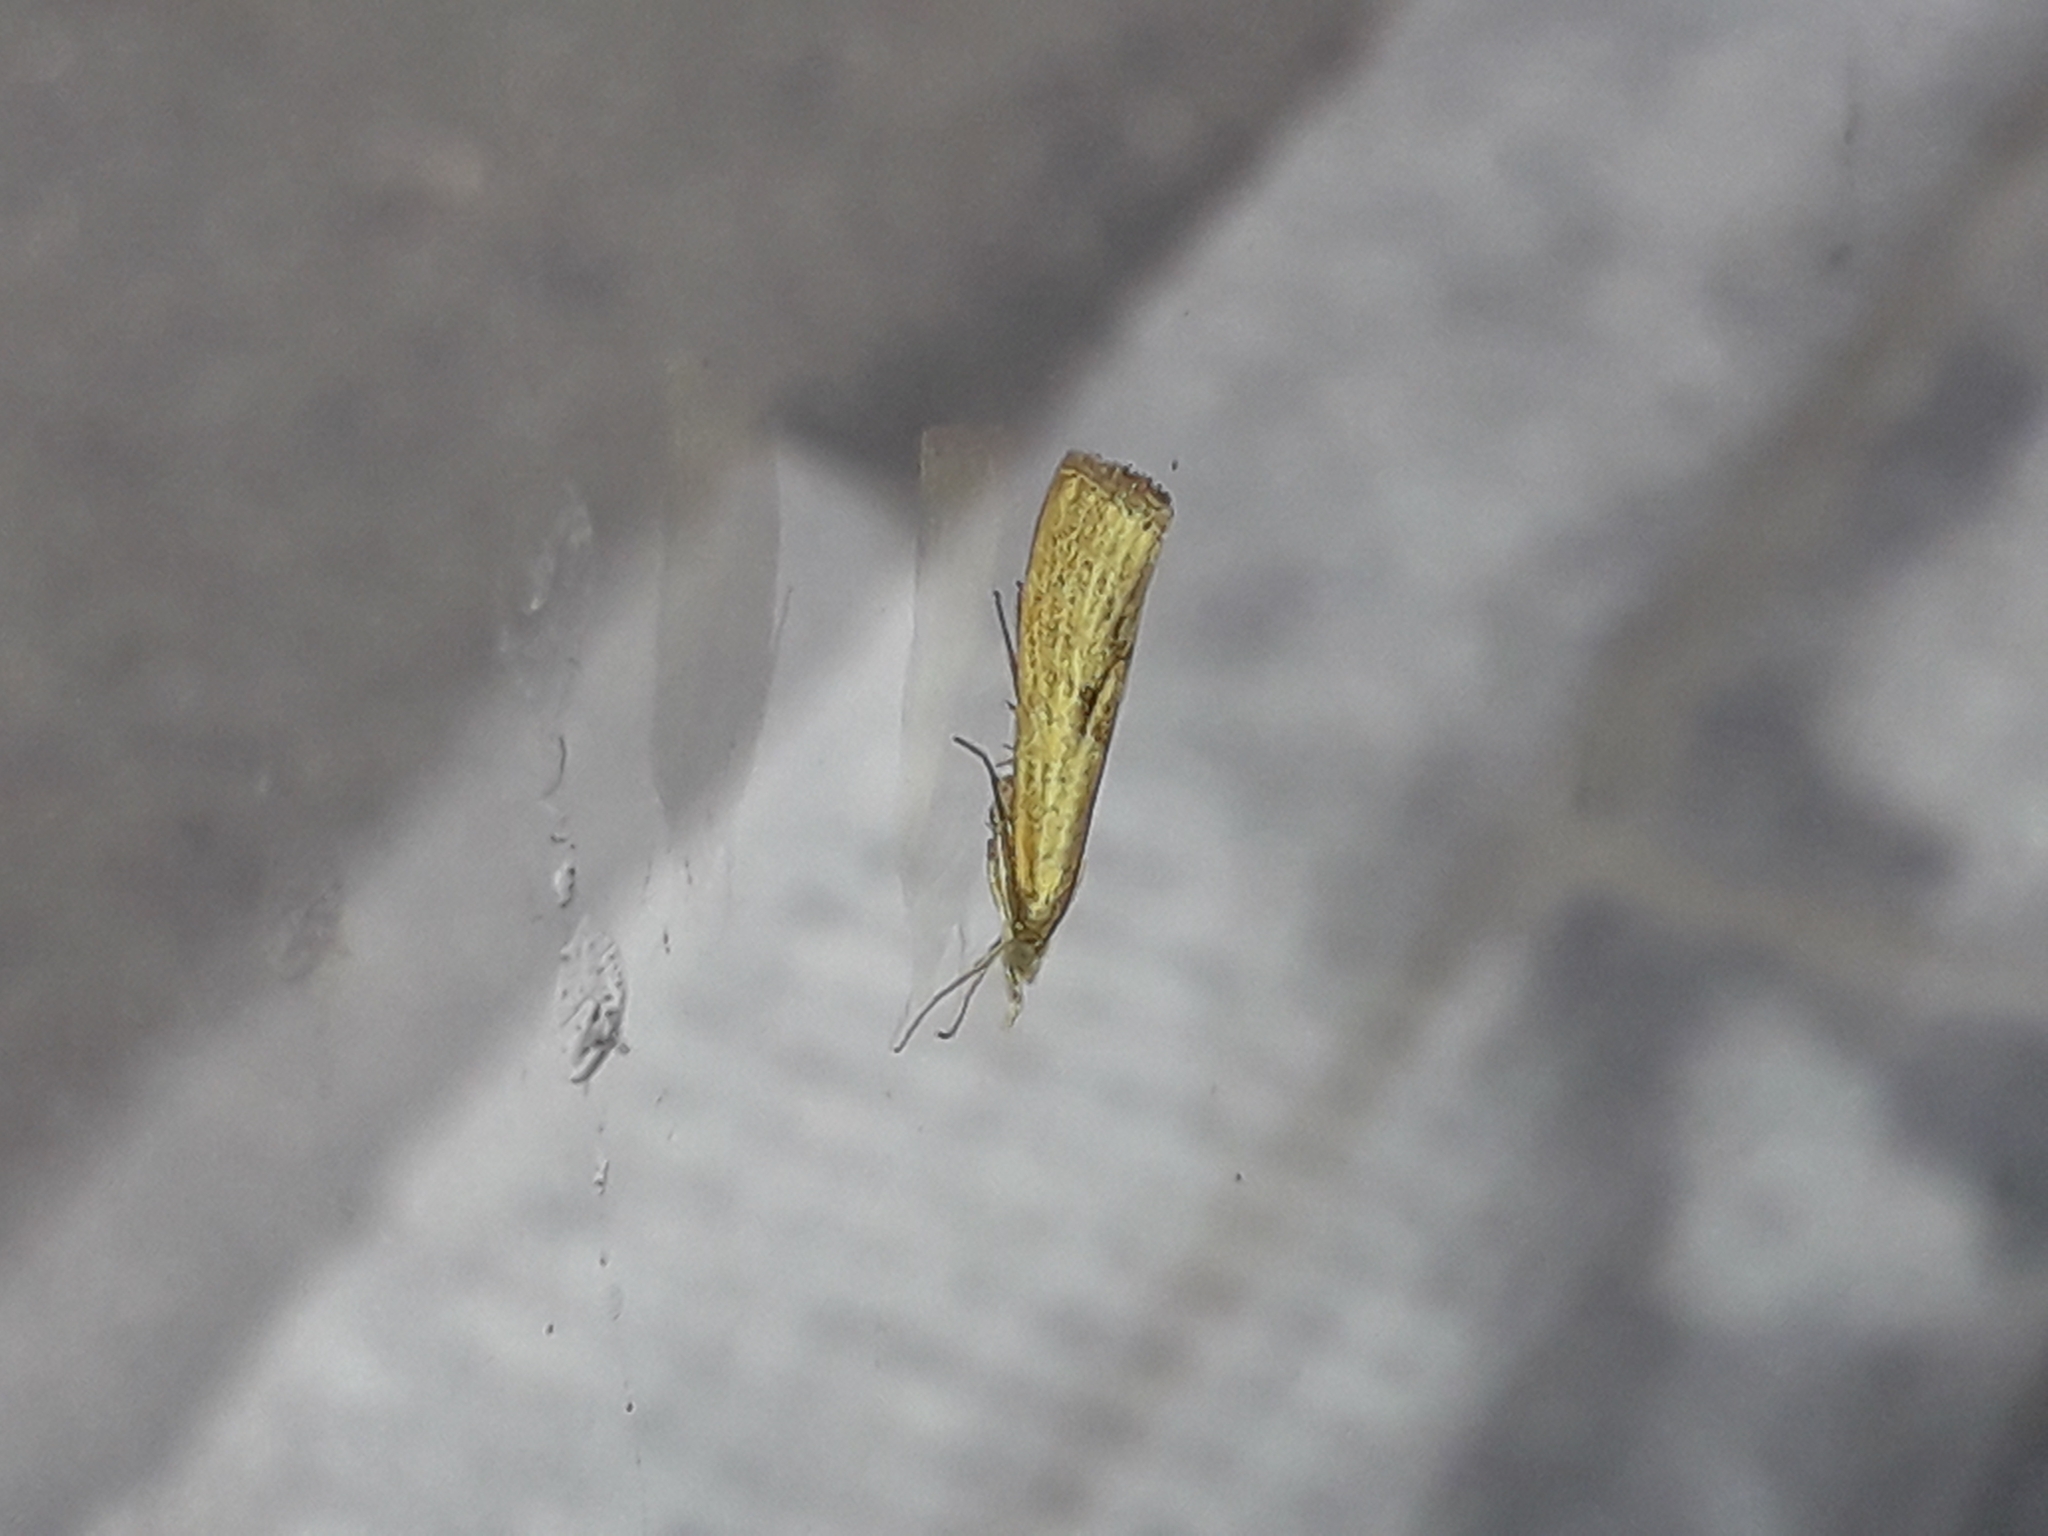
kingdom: Animalia
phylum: Arthropoda
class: Insecta
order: Lepidoptera
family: Crambidae
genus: Agriphila
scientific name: Agriphila inquinatella
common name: Barred grass-veneer
